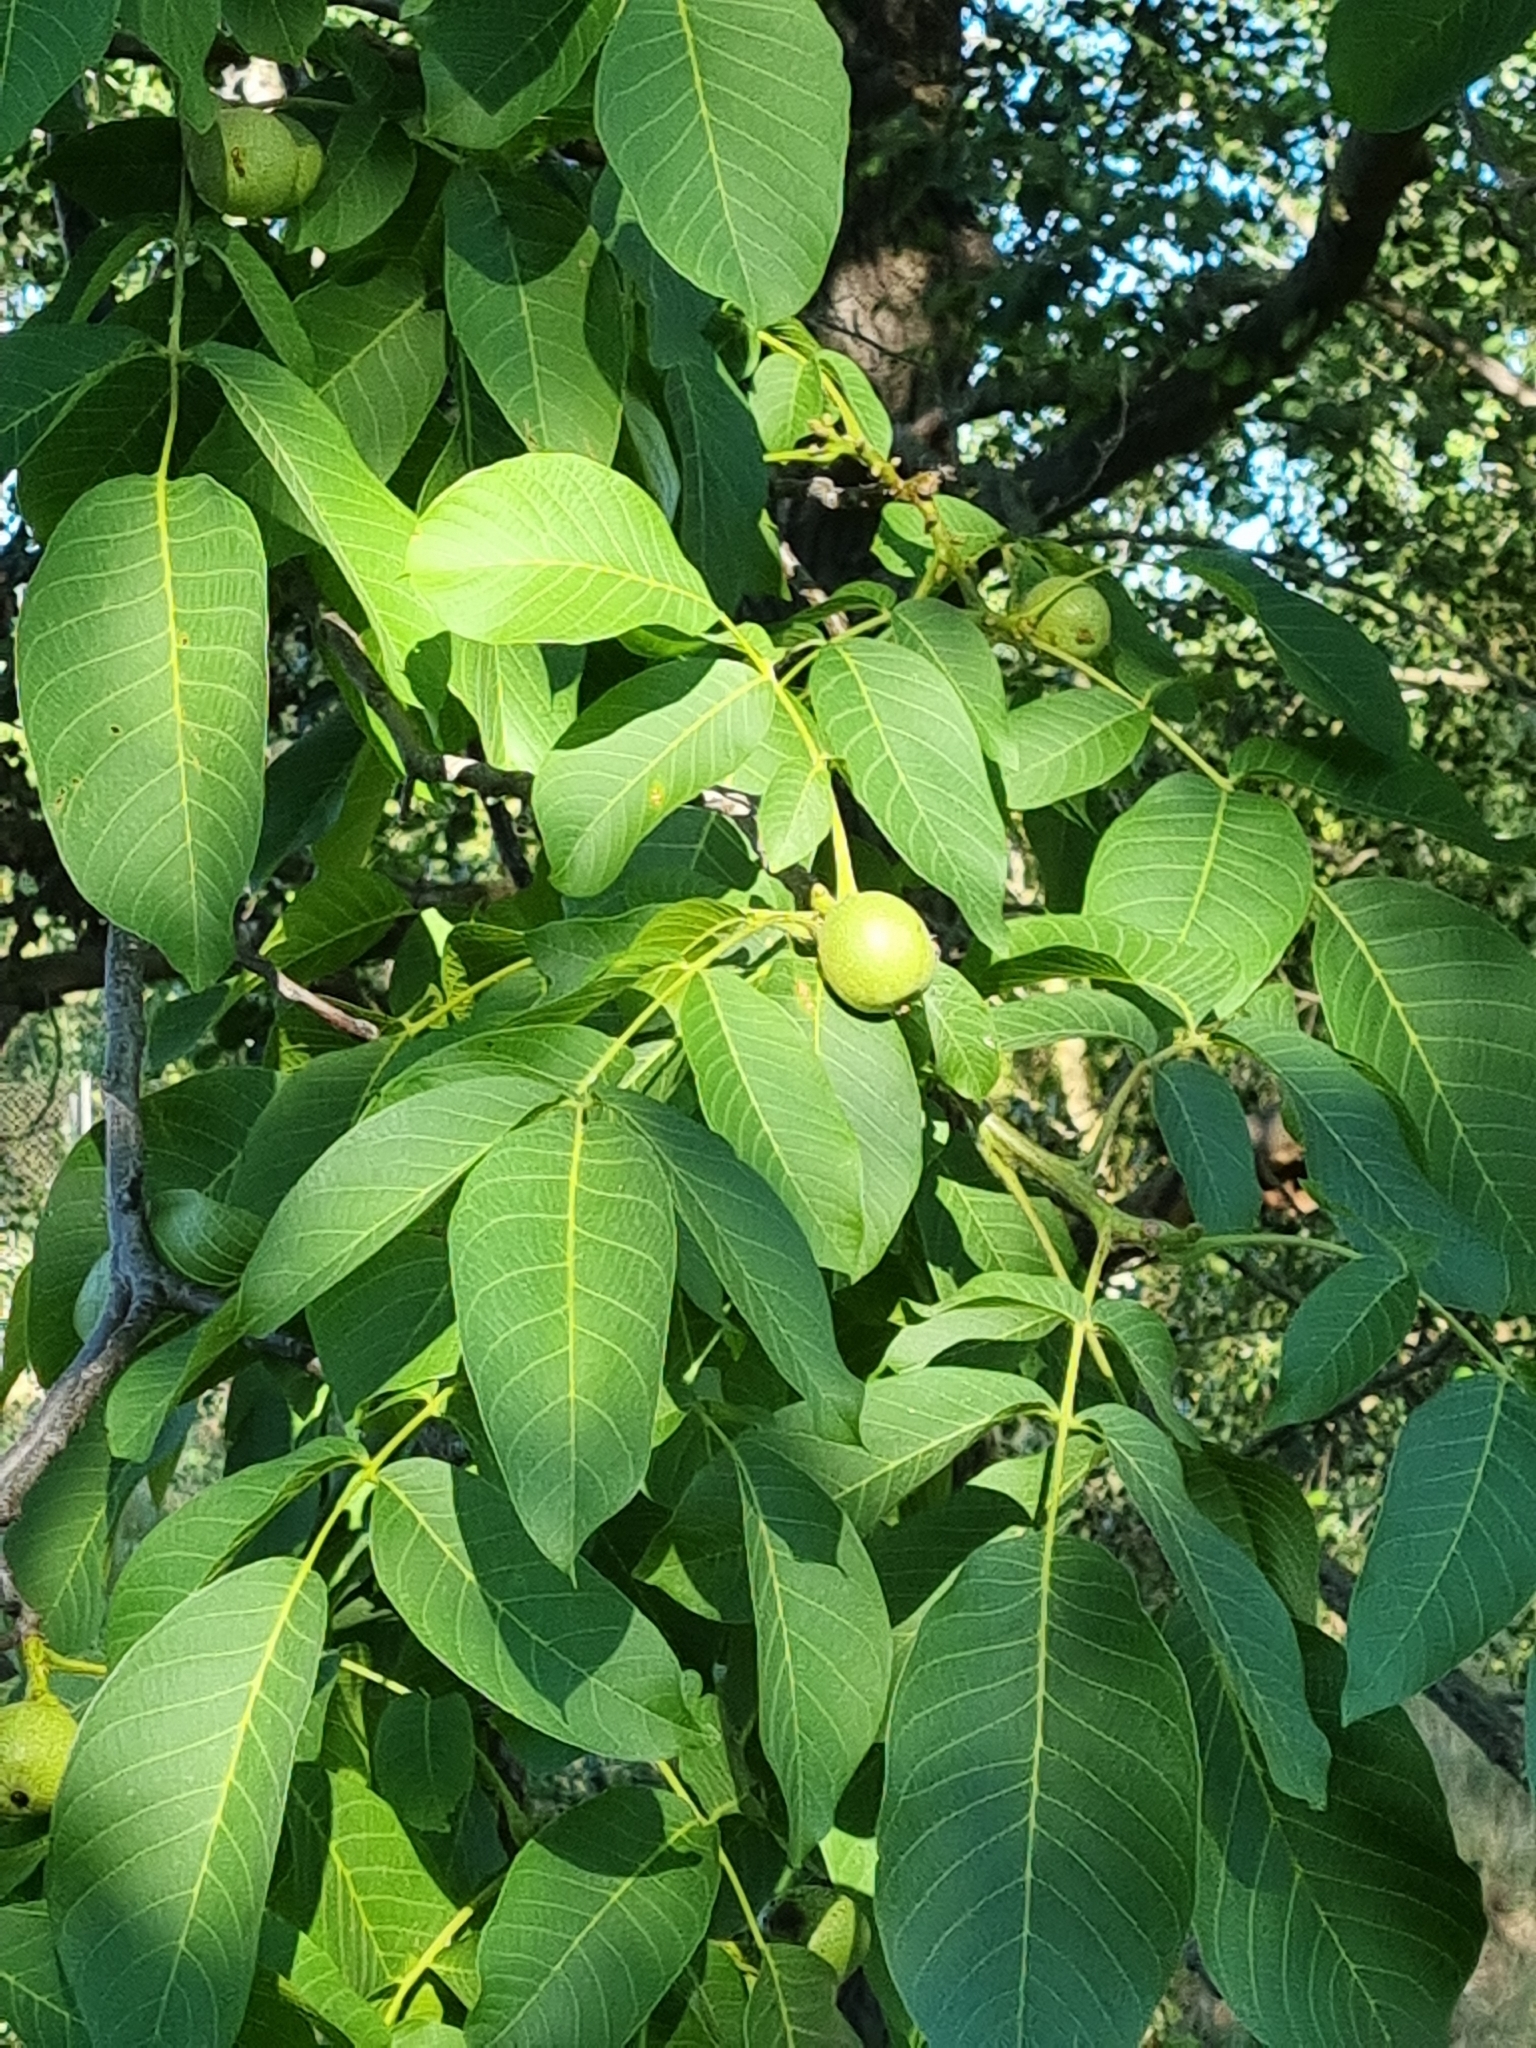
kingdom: Plantae
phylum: Tracheophyta
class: Magnoliopsida
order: Fagales
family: Juglandaceae
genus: Juglans
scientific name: Juglans regia
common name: Walnut
